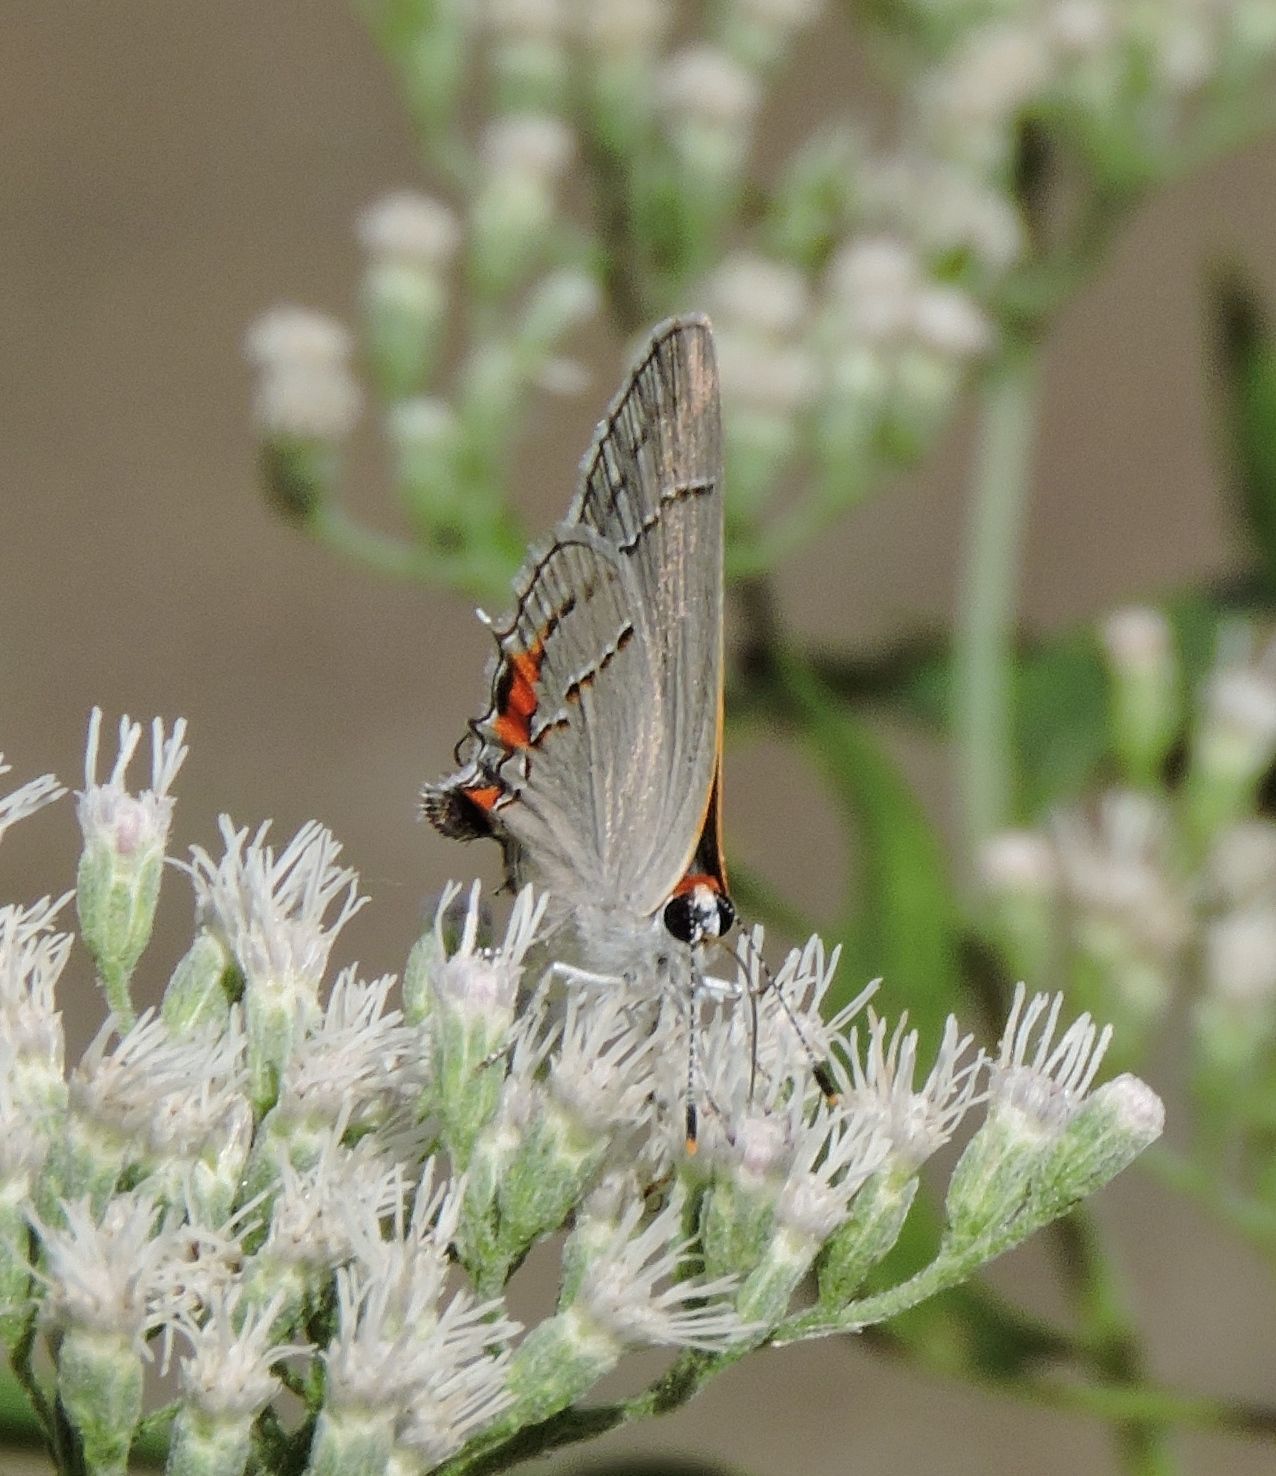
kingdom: Animalia
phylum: Arthropoda
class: Insecta
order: Lepidoptera
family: Lycaenidae
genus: Strymon
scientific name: Strymon melinus
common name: Gray hairstreak
